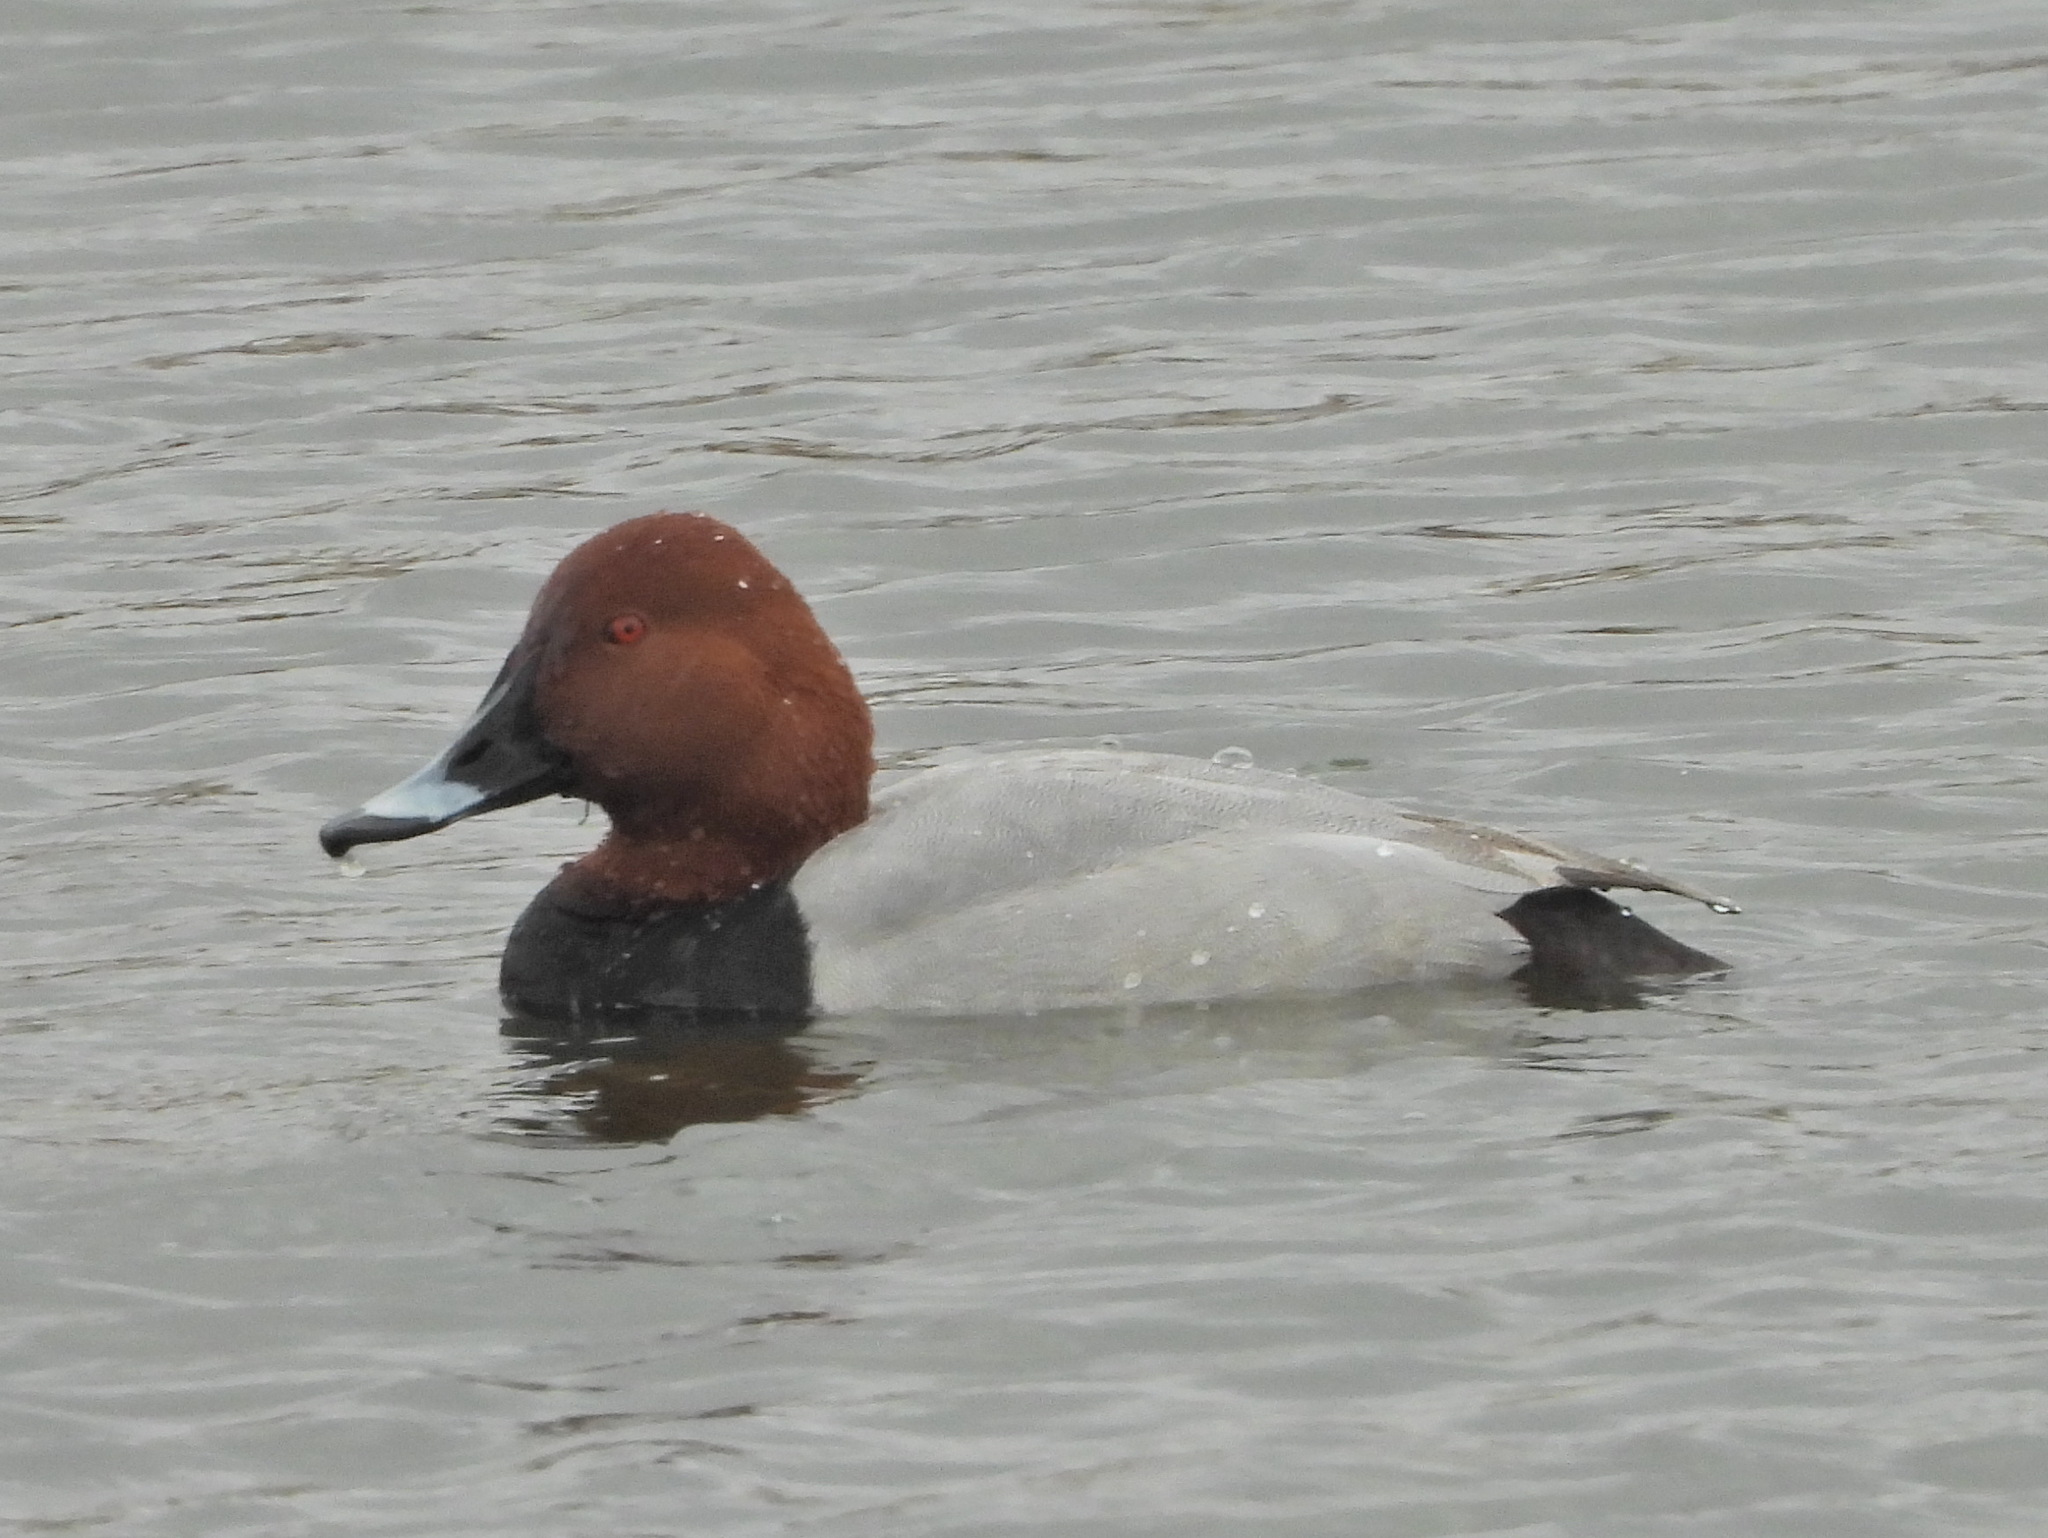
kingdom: Animalia
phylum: Chordata
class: Aves
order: Anseriformes
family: Anatidae
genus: Aythya
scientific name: Aythya ferina
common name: Common pochard
